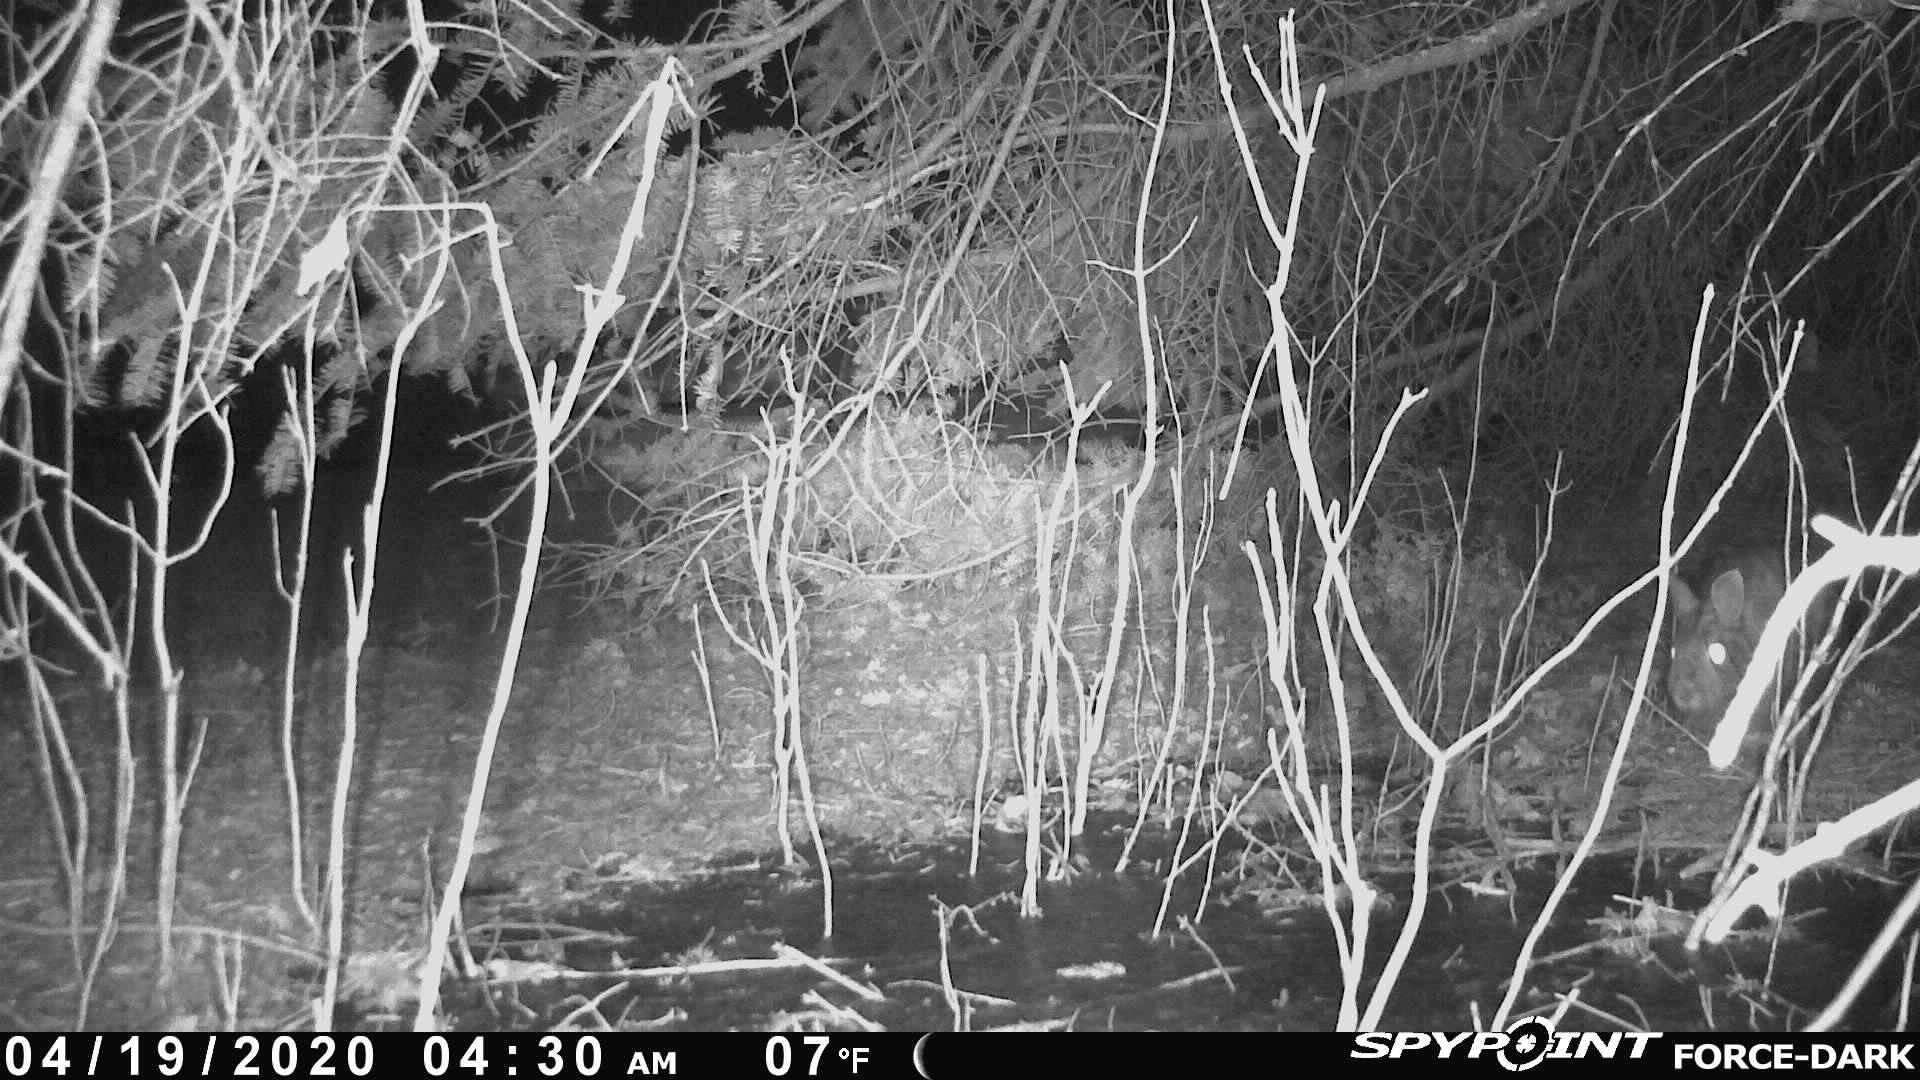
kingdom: Animalia
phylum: Chordata
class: Mammalia
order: Lagomorpha
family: Leporidae
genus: Sylvilagus
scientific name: Sylvilagus floridanus
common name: Eastern cottontail
